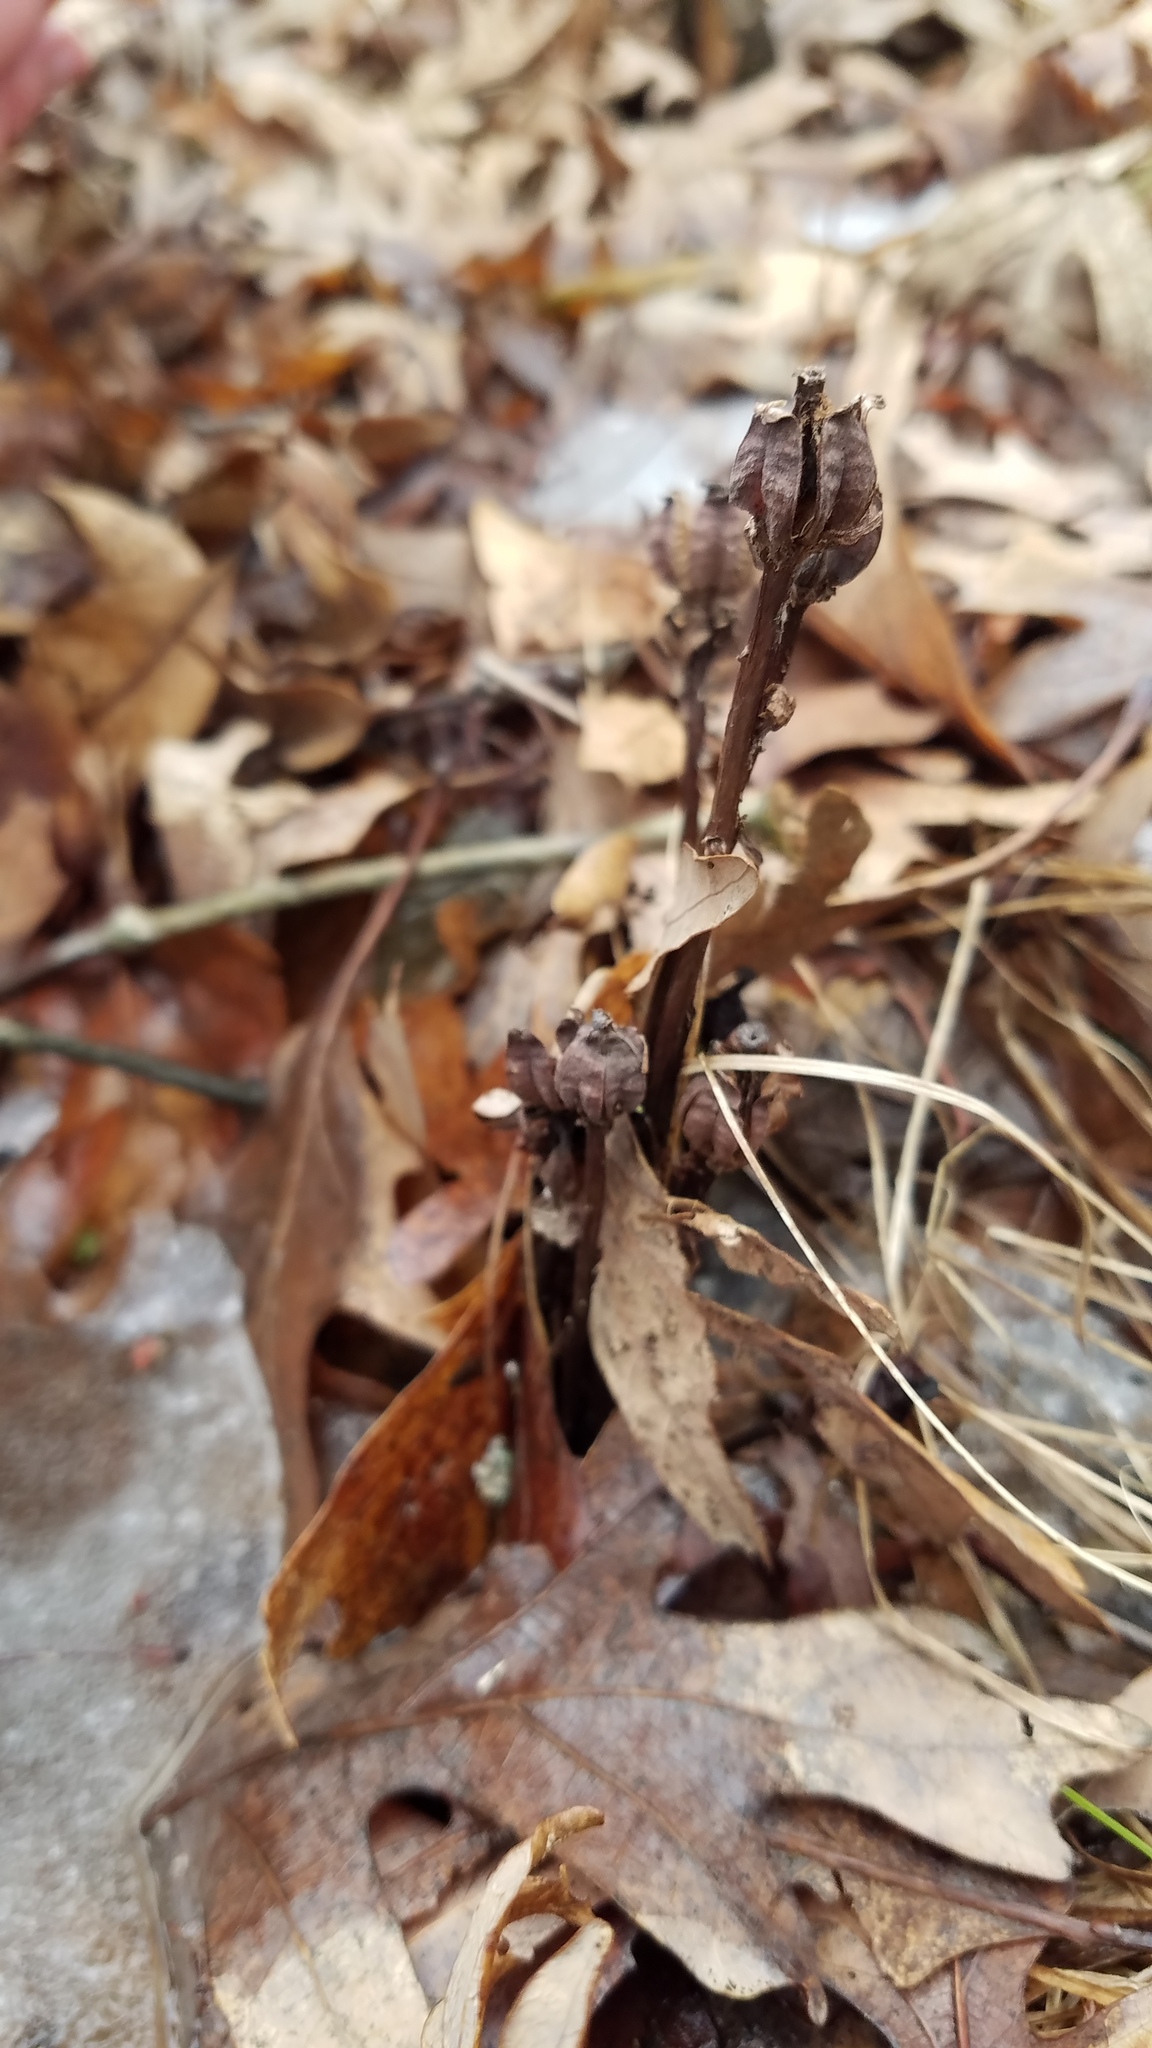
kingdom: Plantae
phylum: Tracheophyta
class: Magnoliopsida
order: Ericales
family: Ericaceae
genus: Monotropa
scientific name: Monotropa uniflora
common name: Convulsion root
